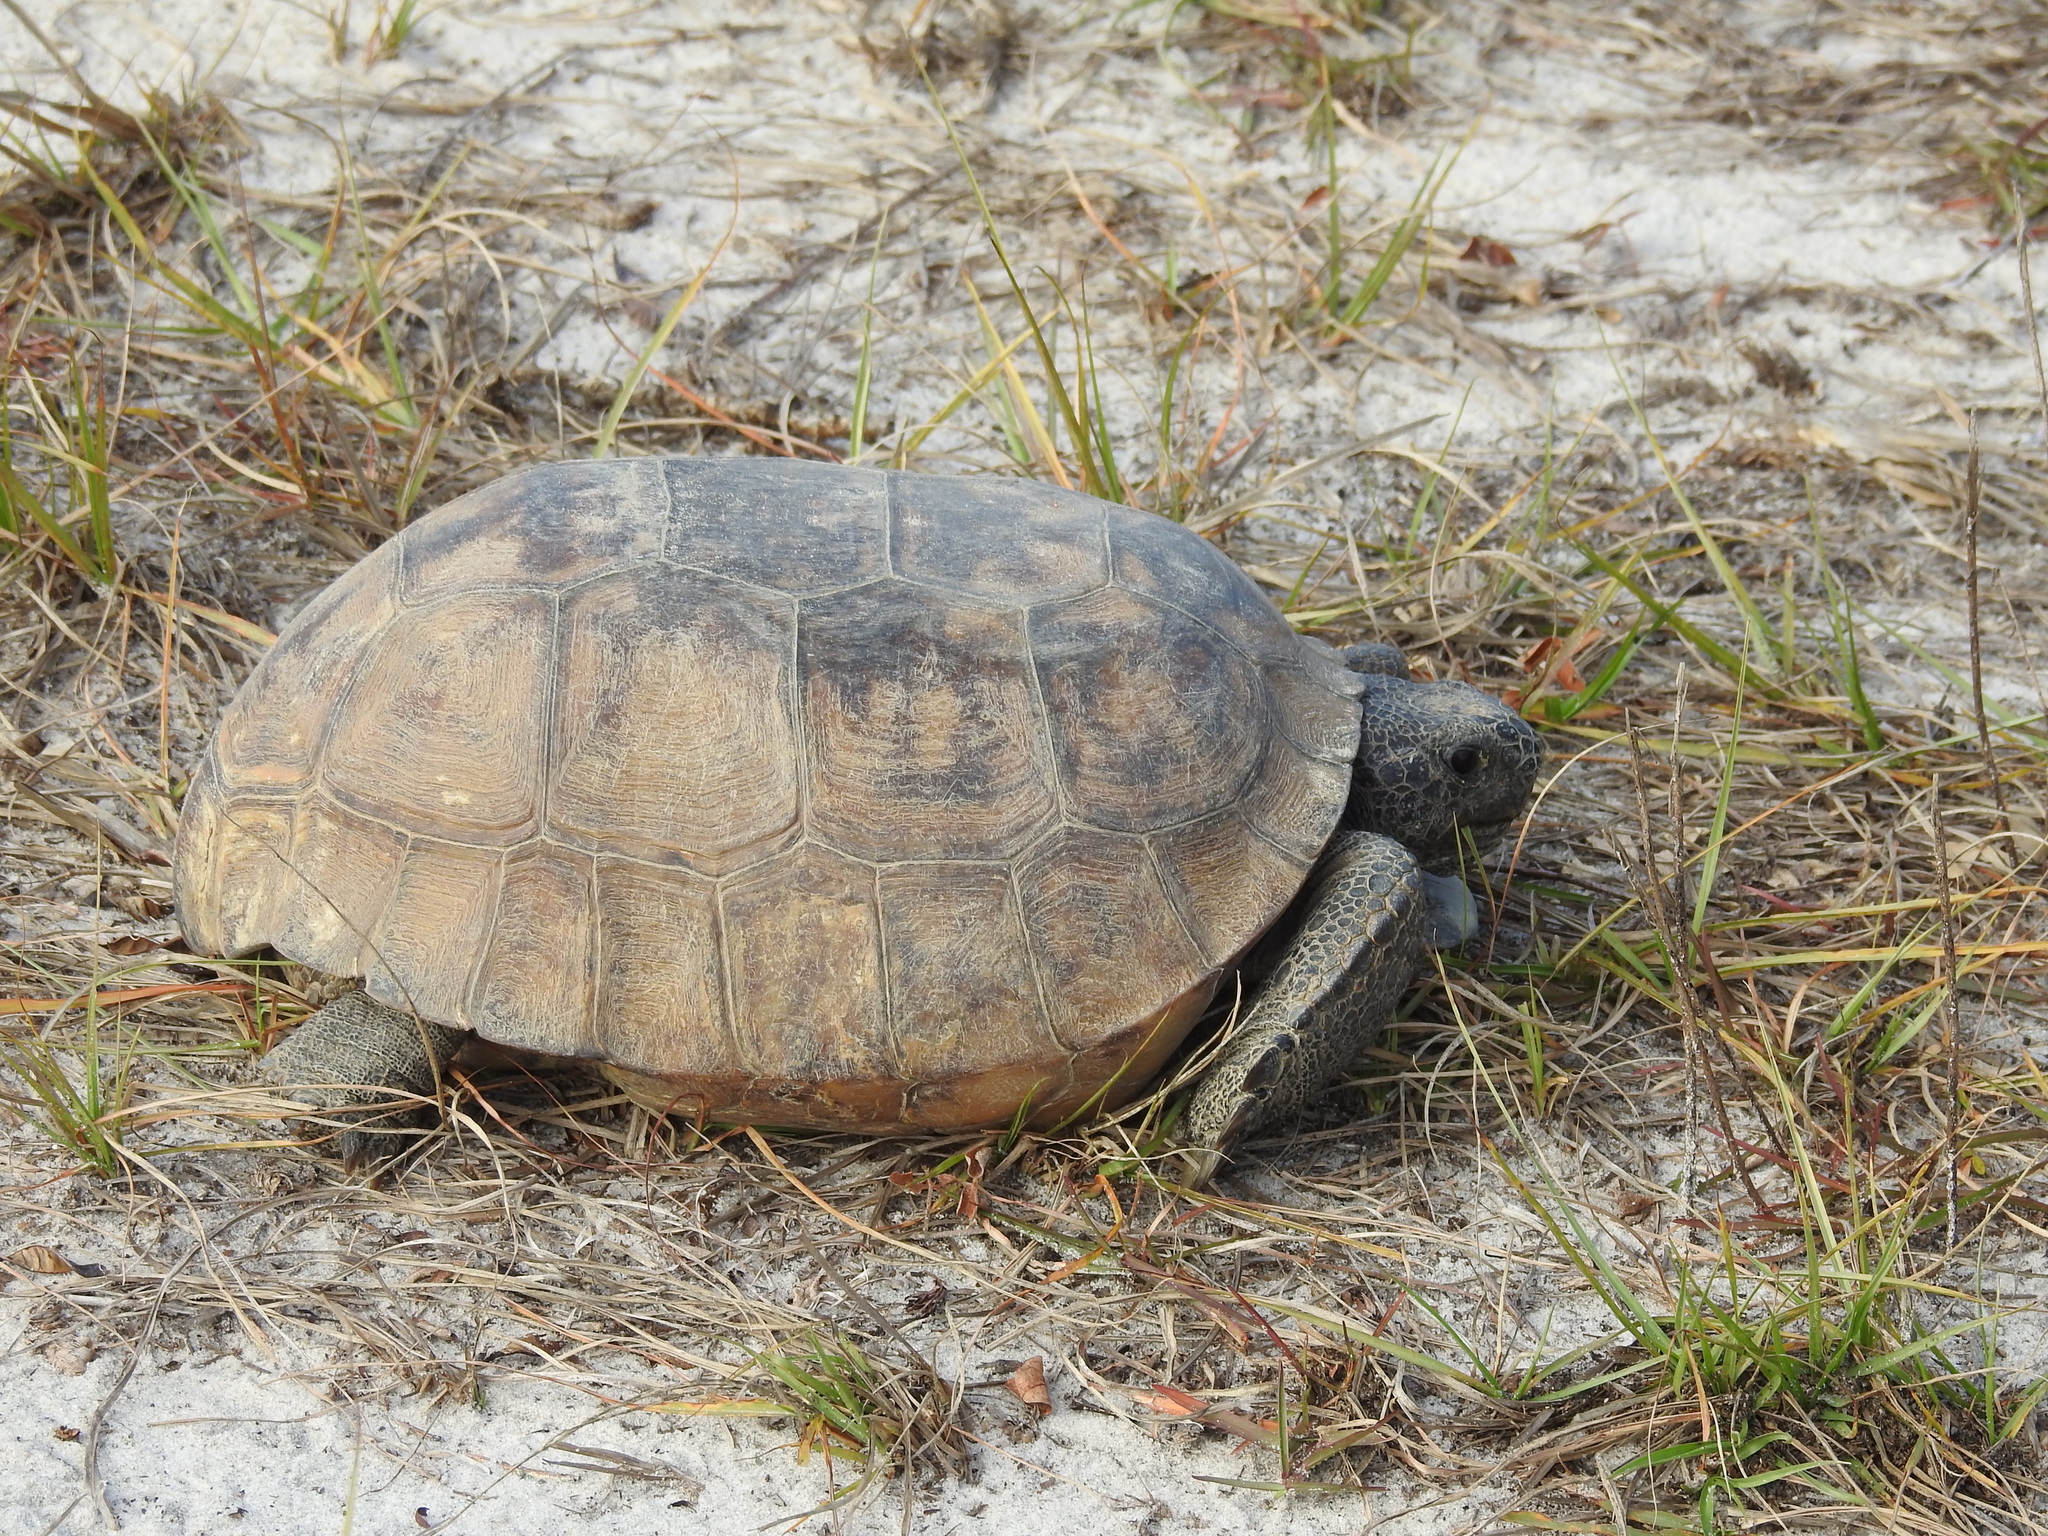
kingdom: Animalia
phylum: Chordata
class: Testudines
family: Testudinidae
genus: Gopherus
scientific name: Gopherus polyphemus
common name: Florida gopher tortoise
